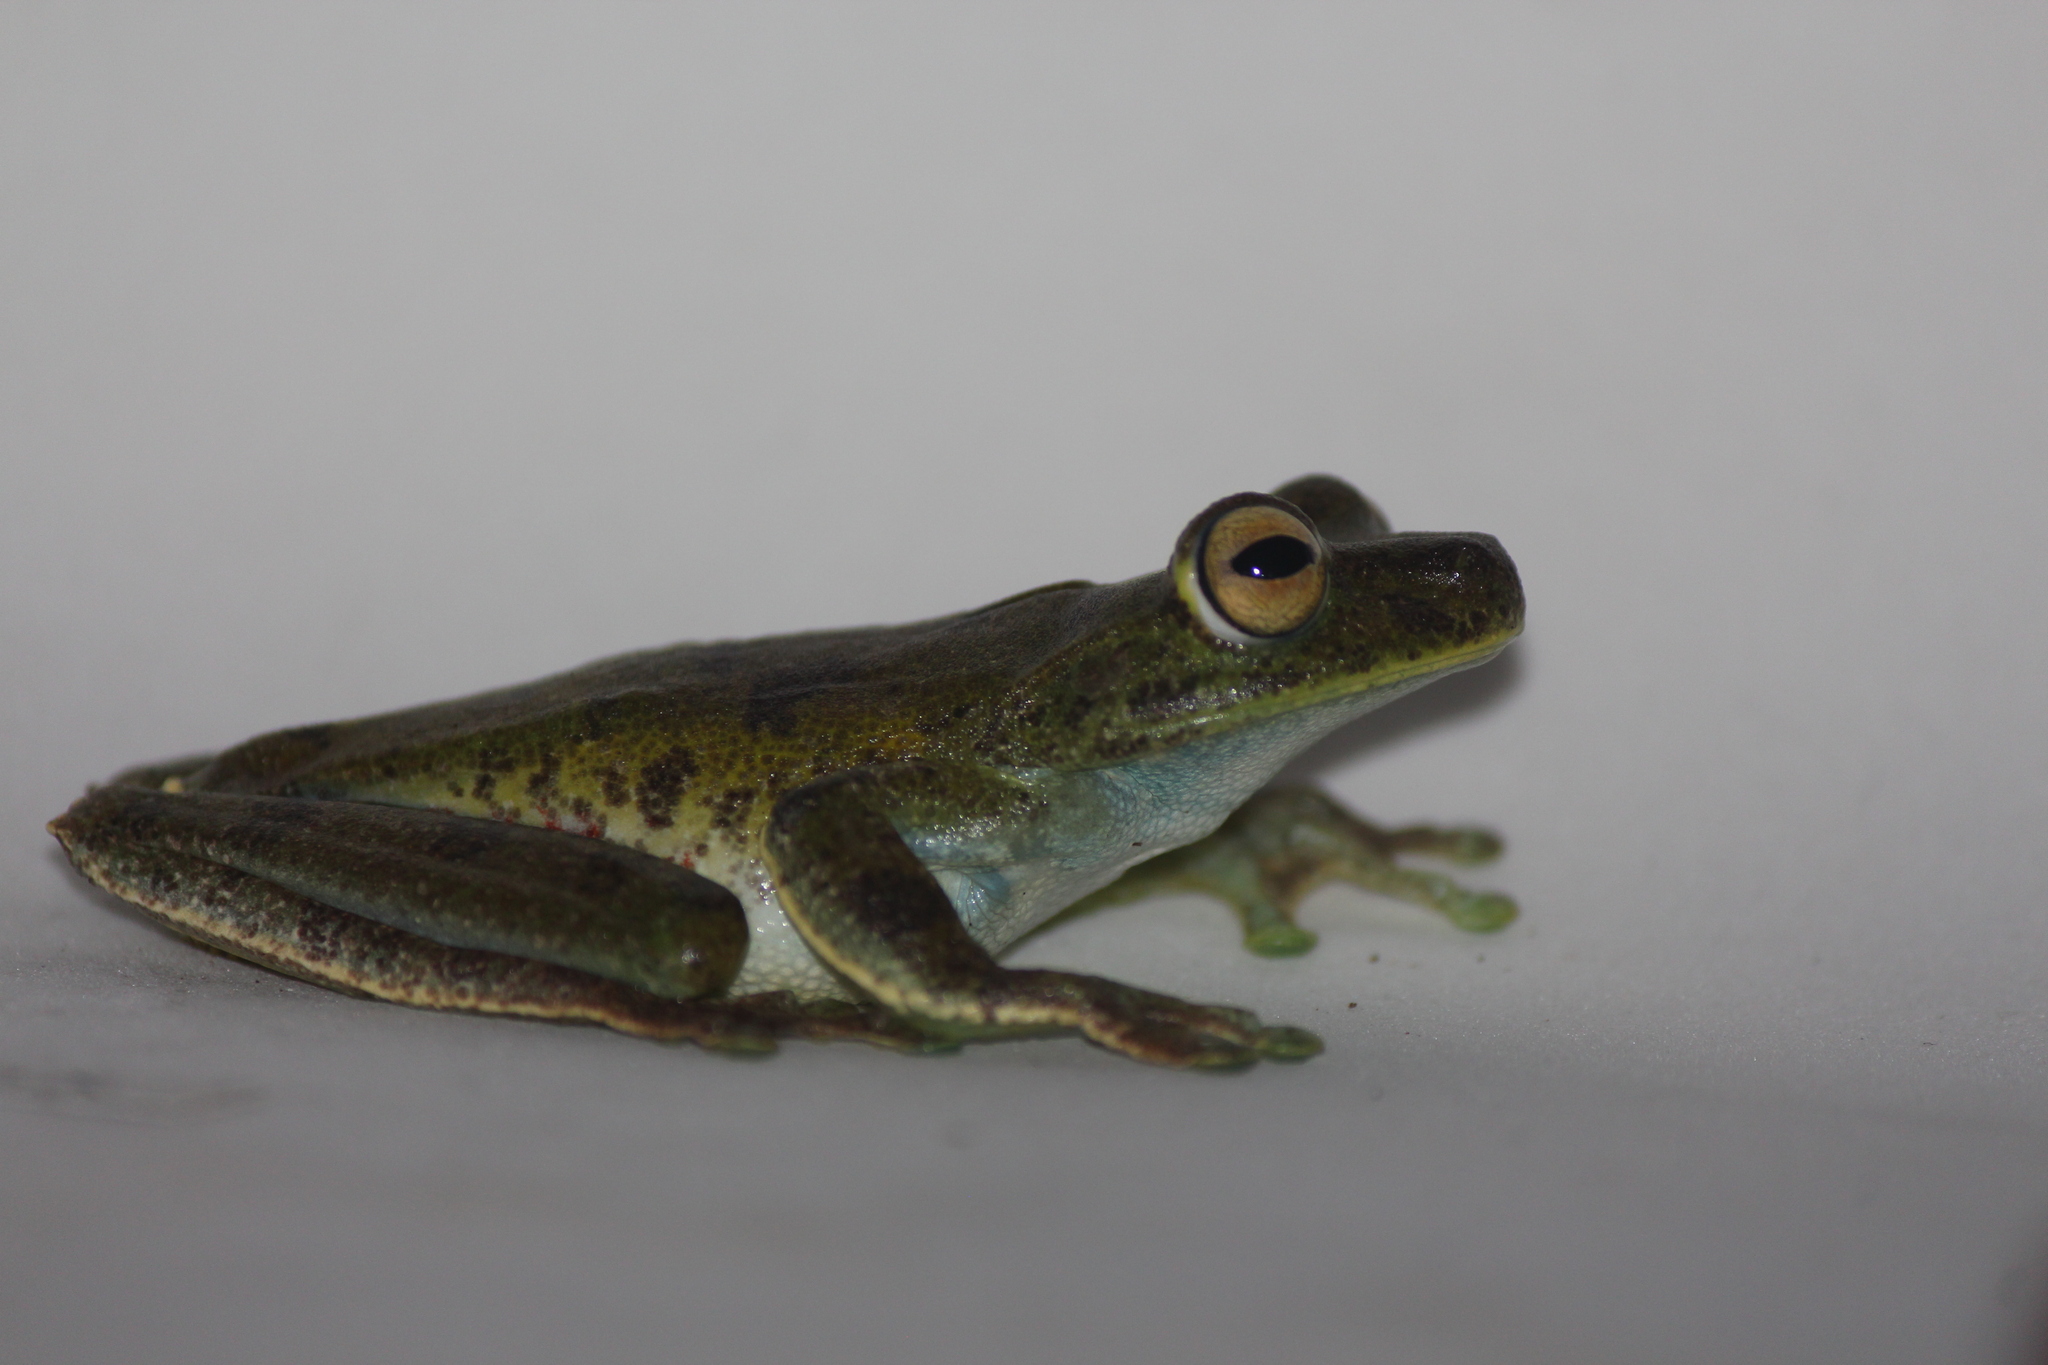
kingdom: Animalia
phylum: Chordata
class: Amphibia
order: Anura
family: Hylidae
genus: Boana
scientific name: Boana pellucens
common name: Palmar treefrog
